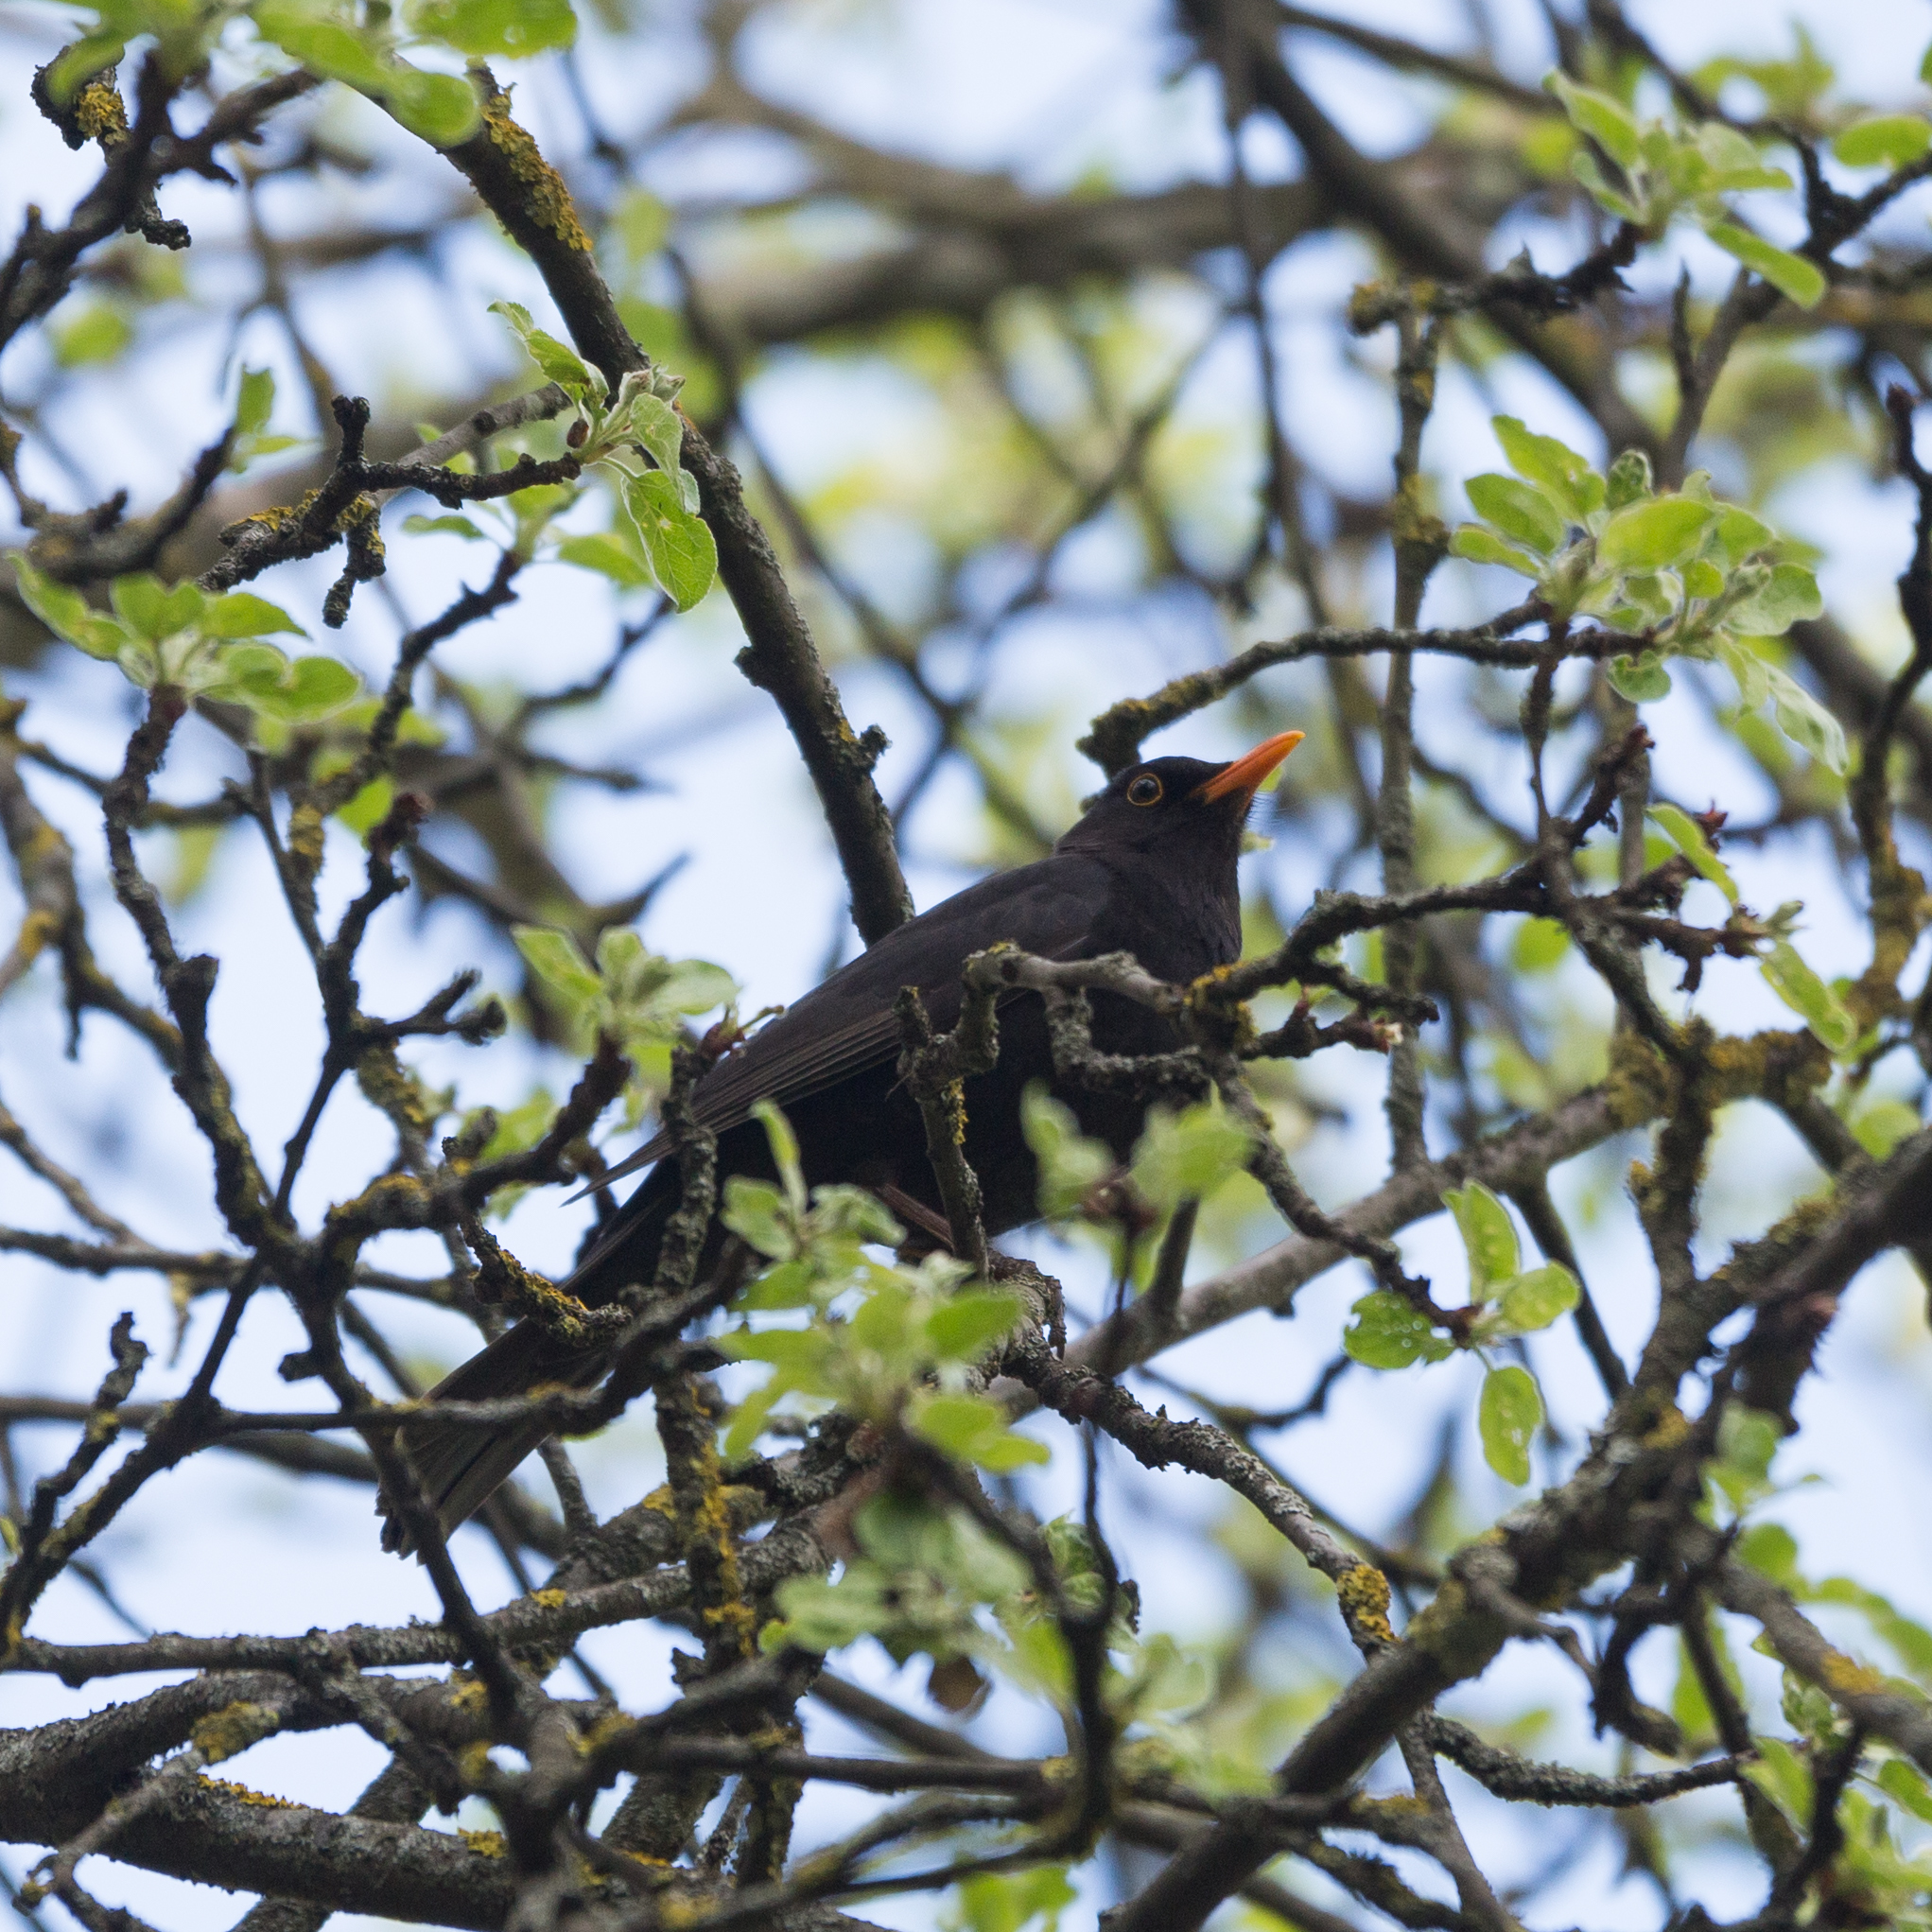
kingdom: Animalia
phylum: Chordata
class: Aves
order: Passeriformes
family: Turdidae
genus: Turdus
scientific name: Turdus merula
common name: Common blackbird
